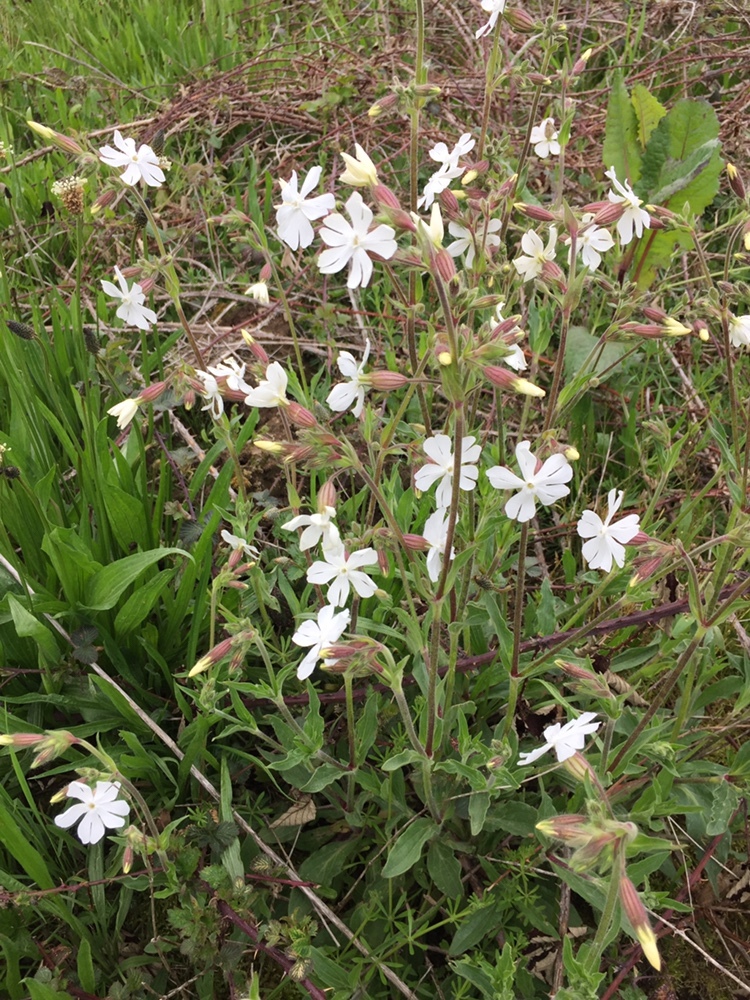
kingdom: Plantae
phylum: Tracheophyta
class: Magnoliopsida
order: Caryophyllales
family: Caryophyllaceae
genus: Silene
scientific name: Silene latifolia
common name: White campion
